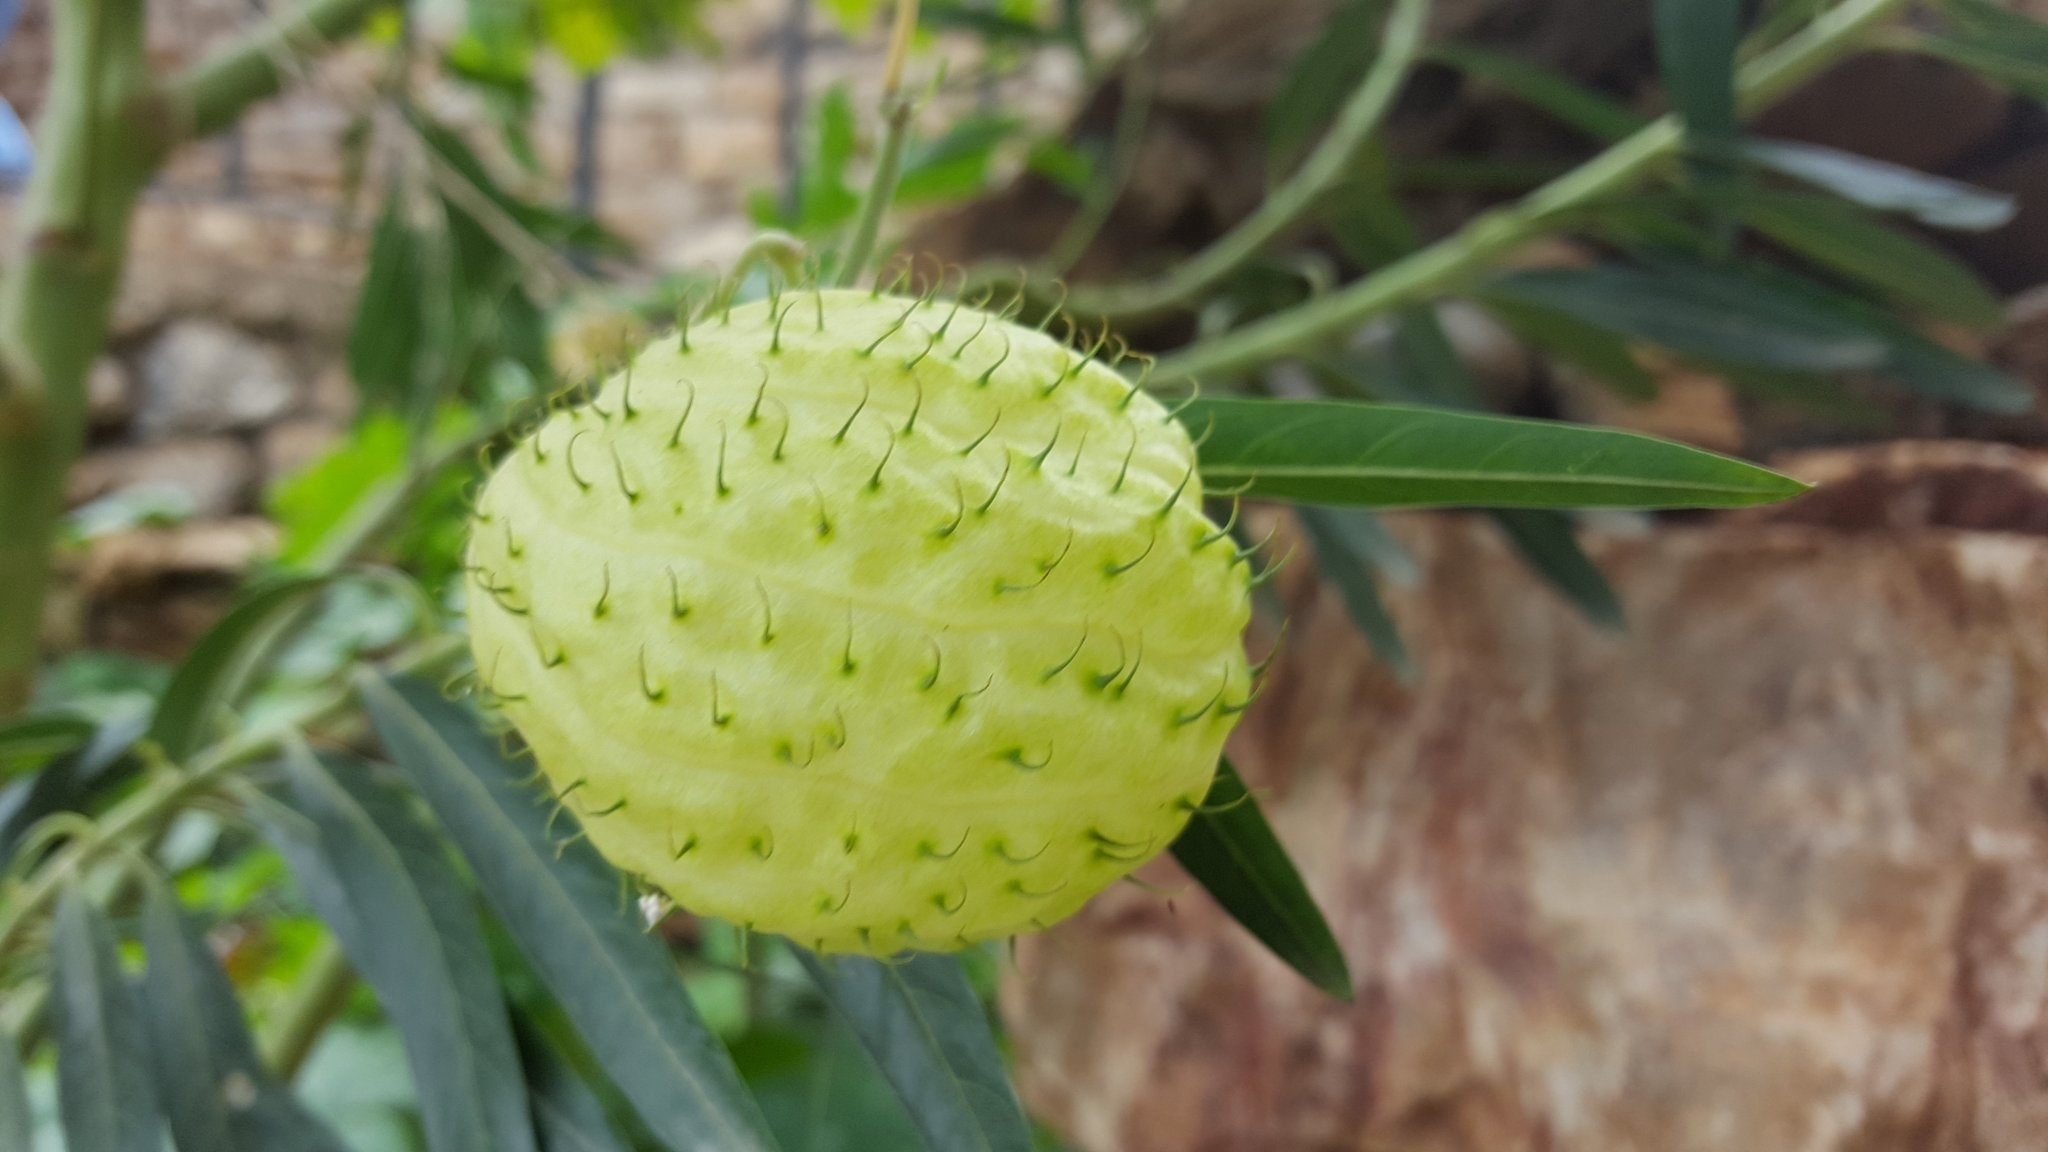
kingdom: Plantae
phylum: Tracheophyta
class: Magnoliopsida
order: Gentianales
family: Apocynaceae
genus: Gomphocarpus
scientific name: Gomphocarpus physocarpus
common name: Balloon cotton bush
